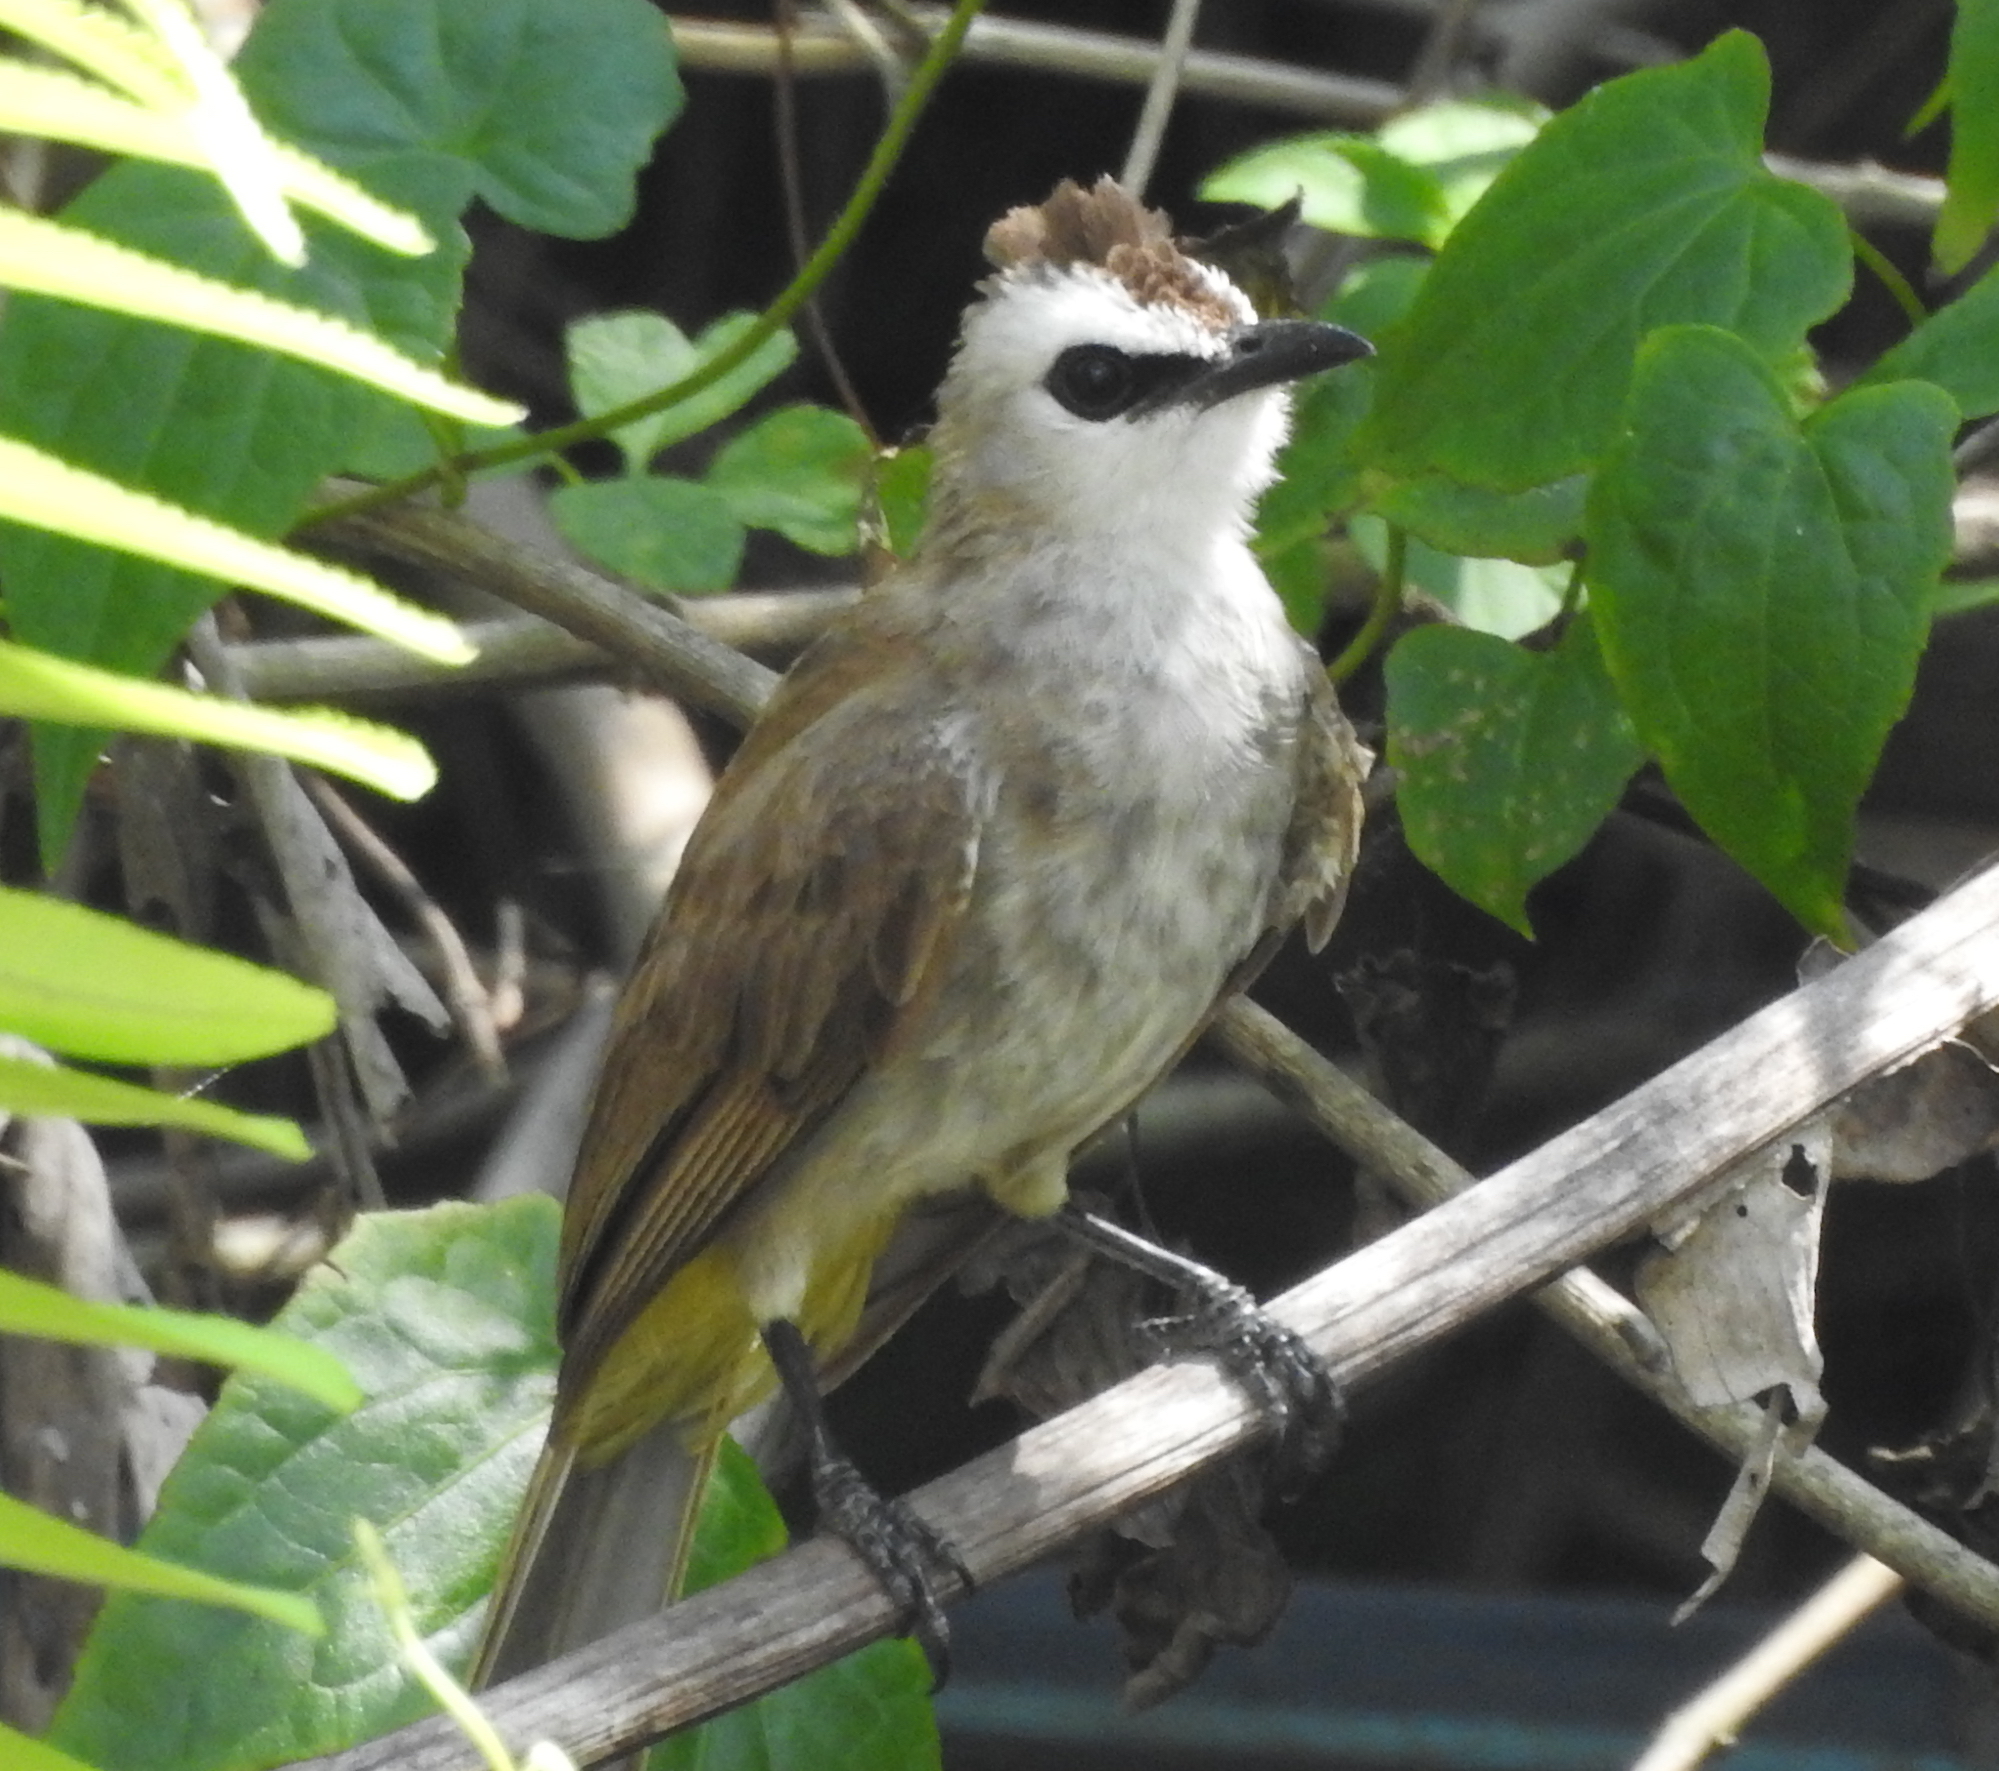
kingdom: Animalia
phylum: Chordata
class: Aves
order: Passeriformes
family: Pycnonotidae
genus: Pycnonotus
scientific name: Pycnonotus goiavier
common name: Yellow-vented bulbul
